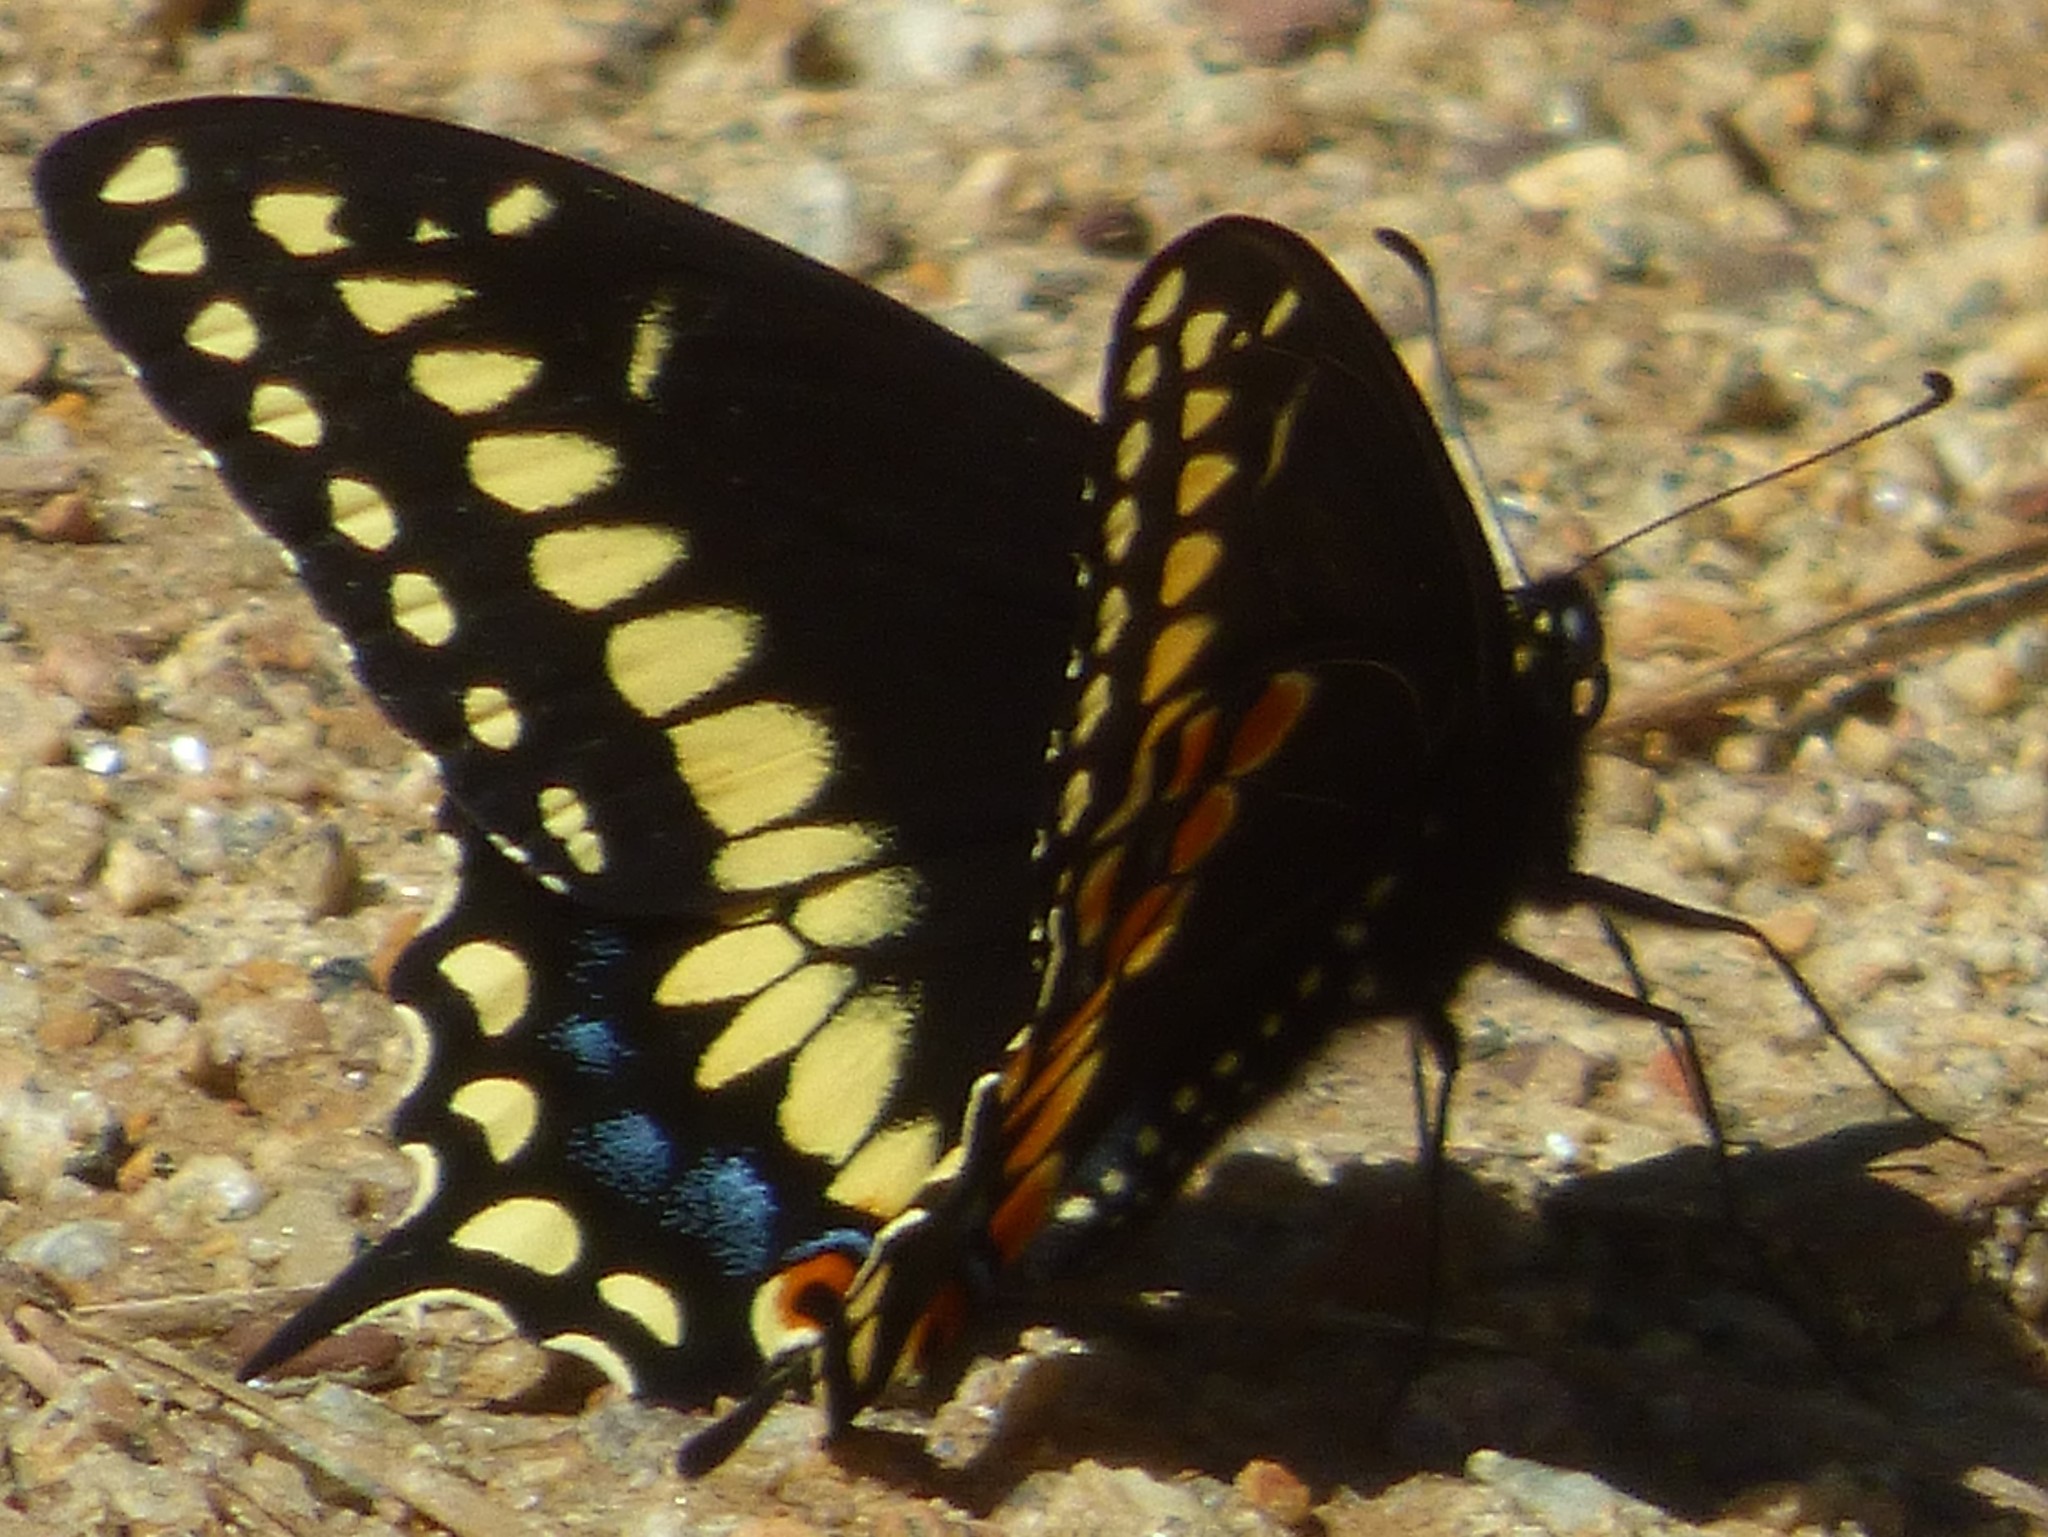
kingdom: Animalia
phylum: Arthropoda
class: Insecta
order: Lepidoptera
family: Papilionidae
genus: Papilio
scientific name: Papilio polyxenes
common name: Black swallowtail
